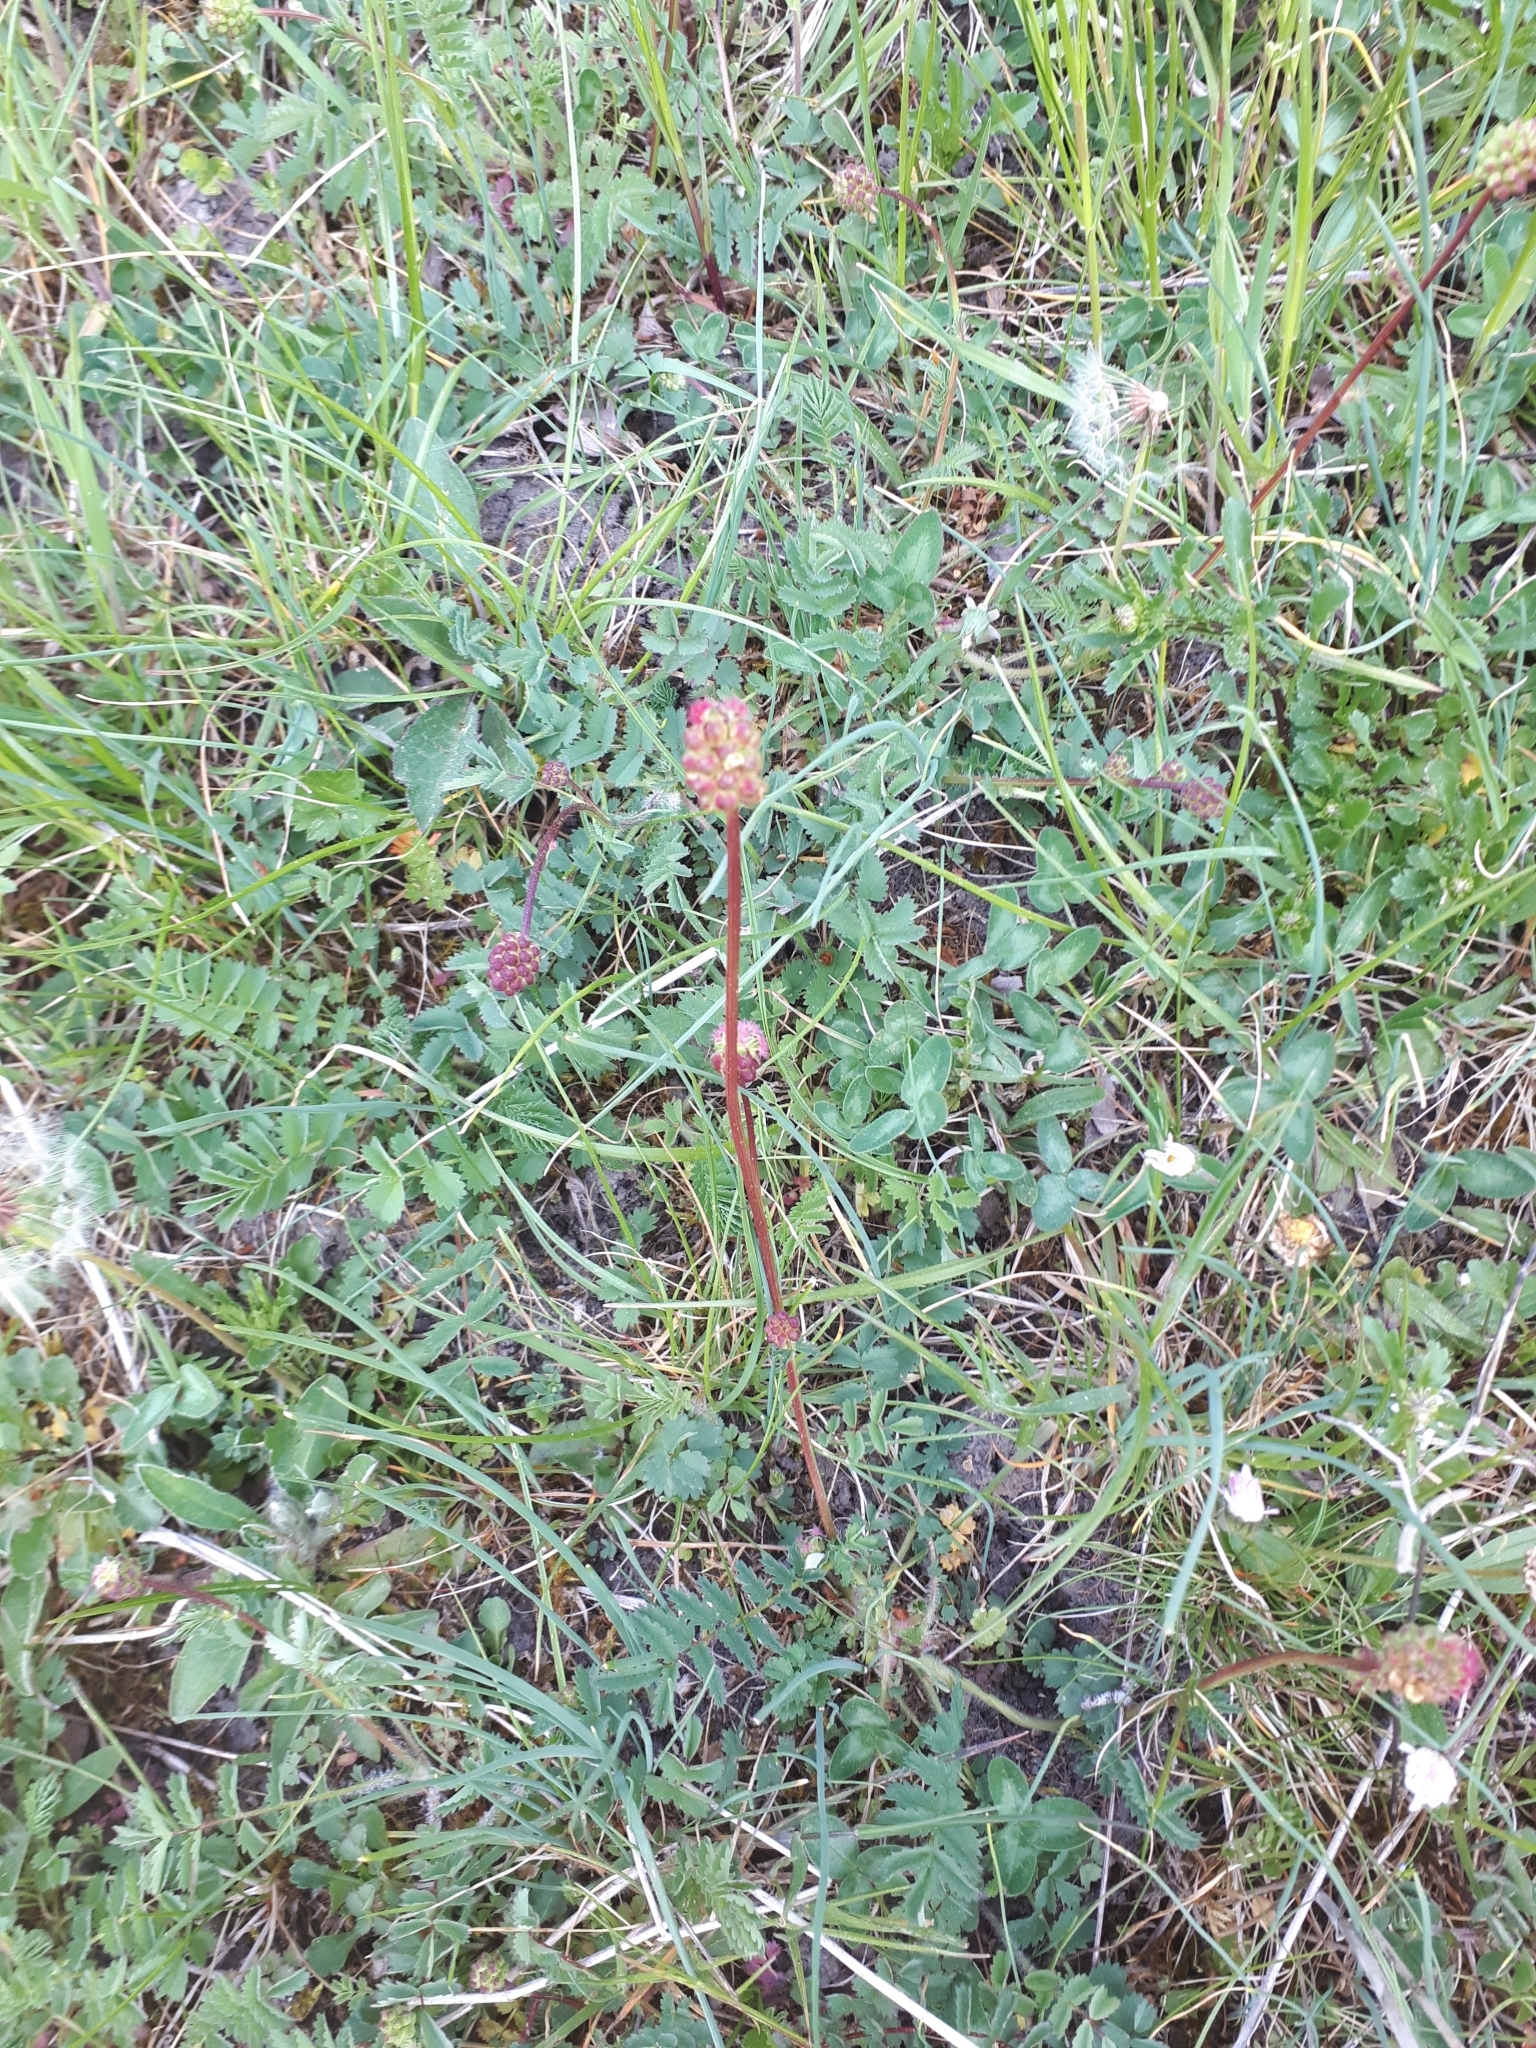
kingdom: Plantae
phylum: Tracheophyta
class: Magnoliopsida
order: Rosales
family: Rosaceae
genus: Poterium
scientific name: Poterium sanguisorba
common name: Salad burnet
